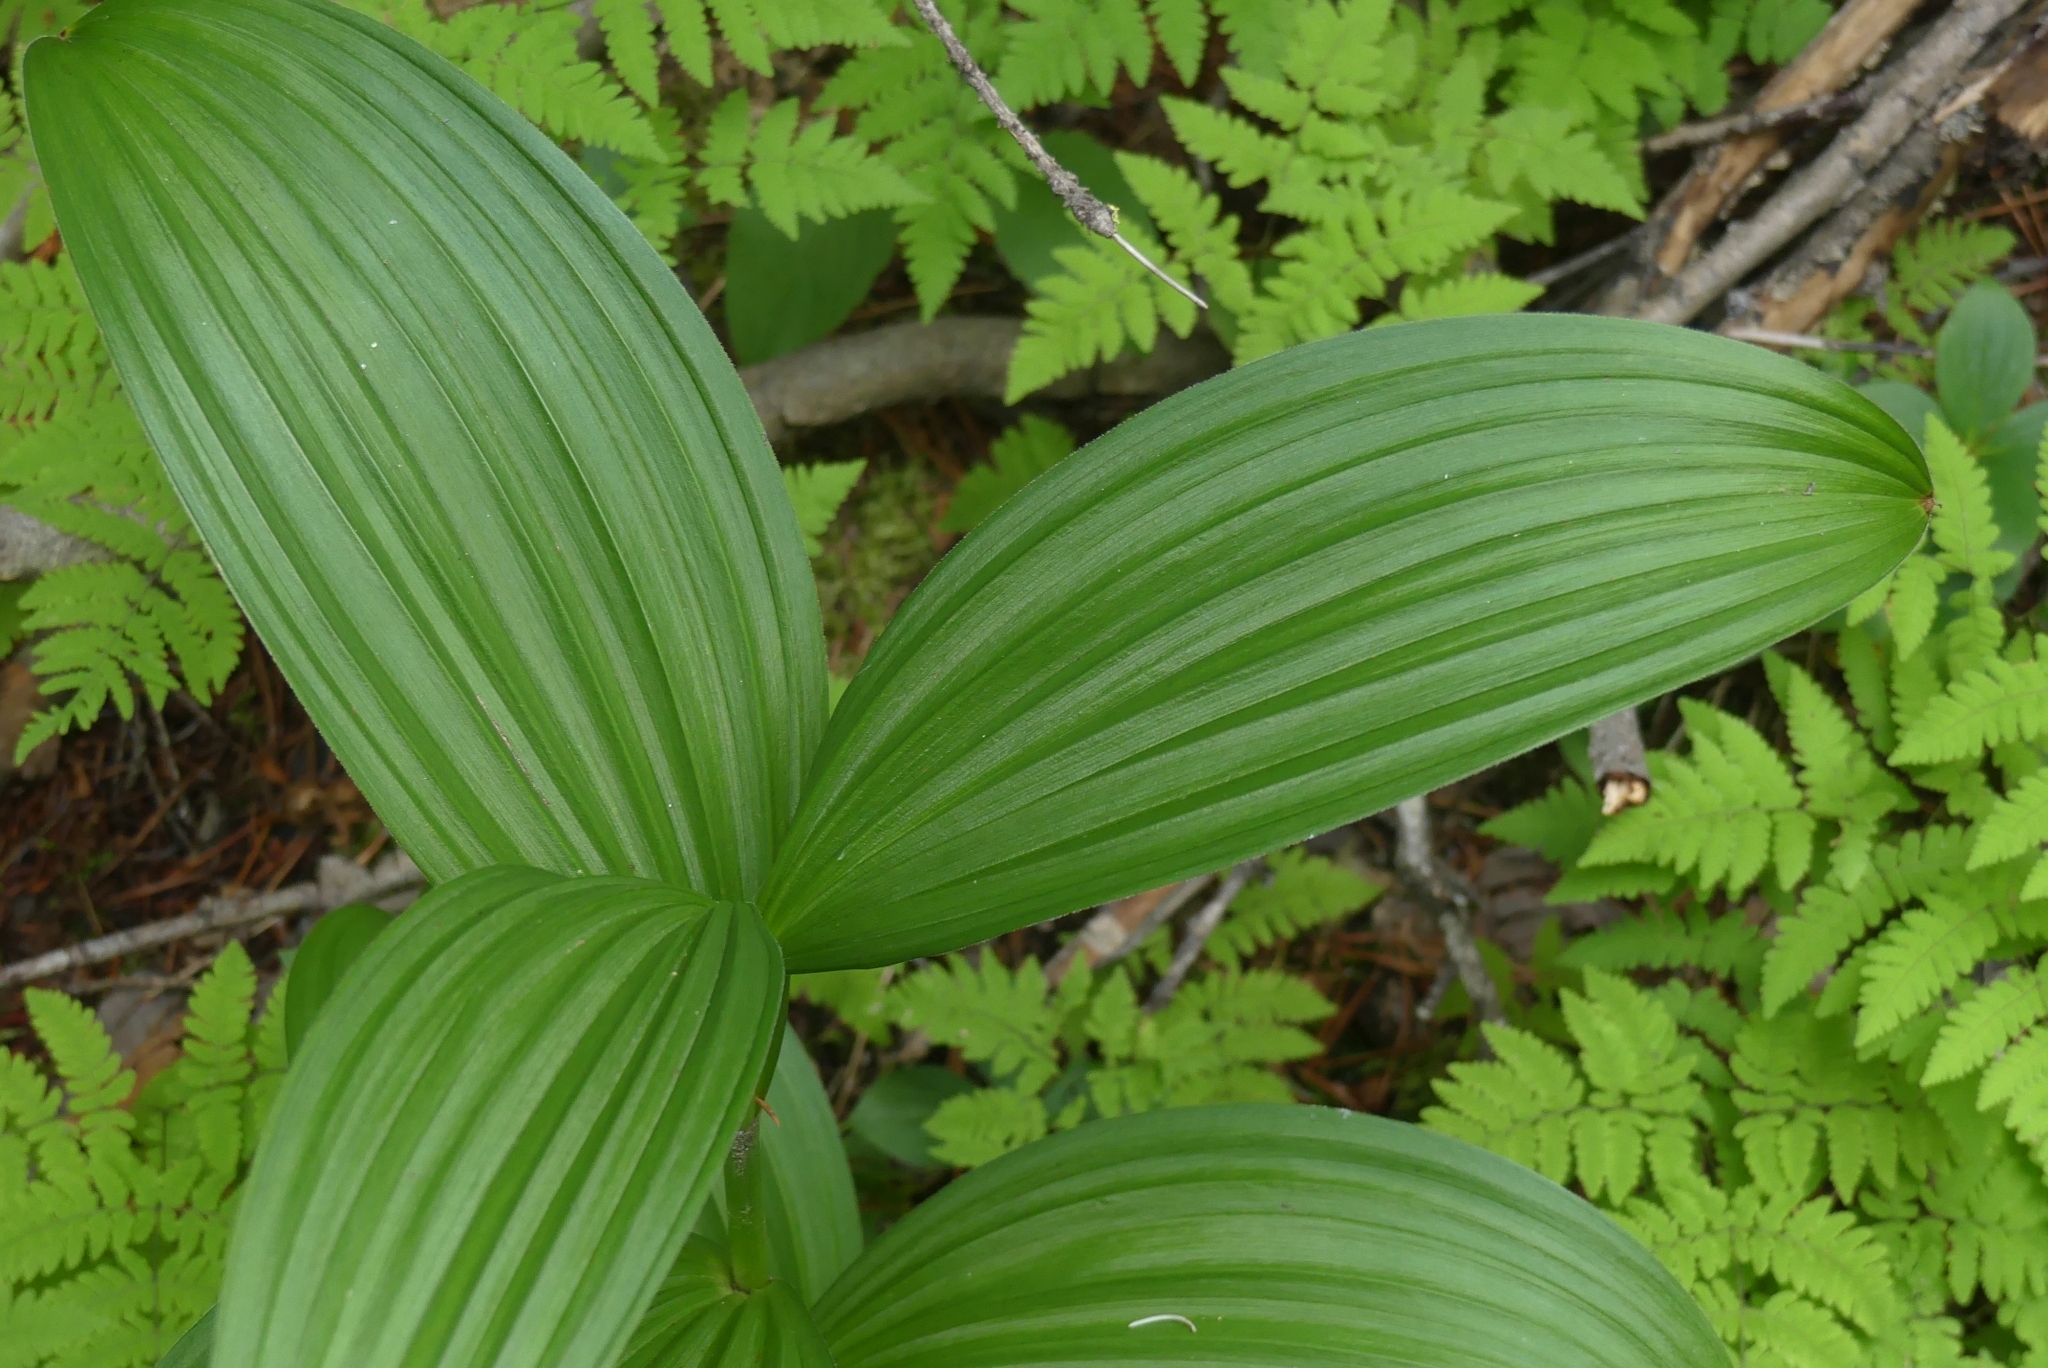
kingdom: Plantae
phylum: Tracheophyta
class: Liliopsida
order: Liliales
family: Melanthiaceae
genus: Veratrum
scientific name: Veratrum viride
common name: American false hellebore
